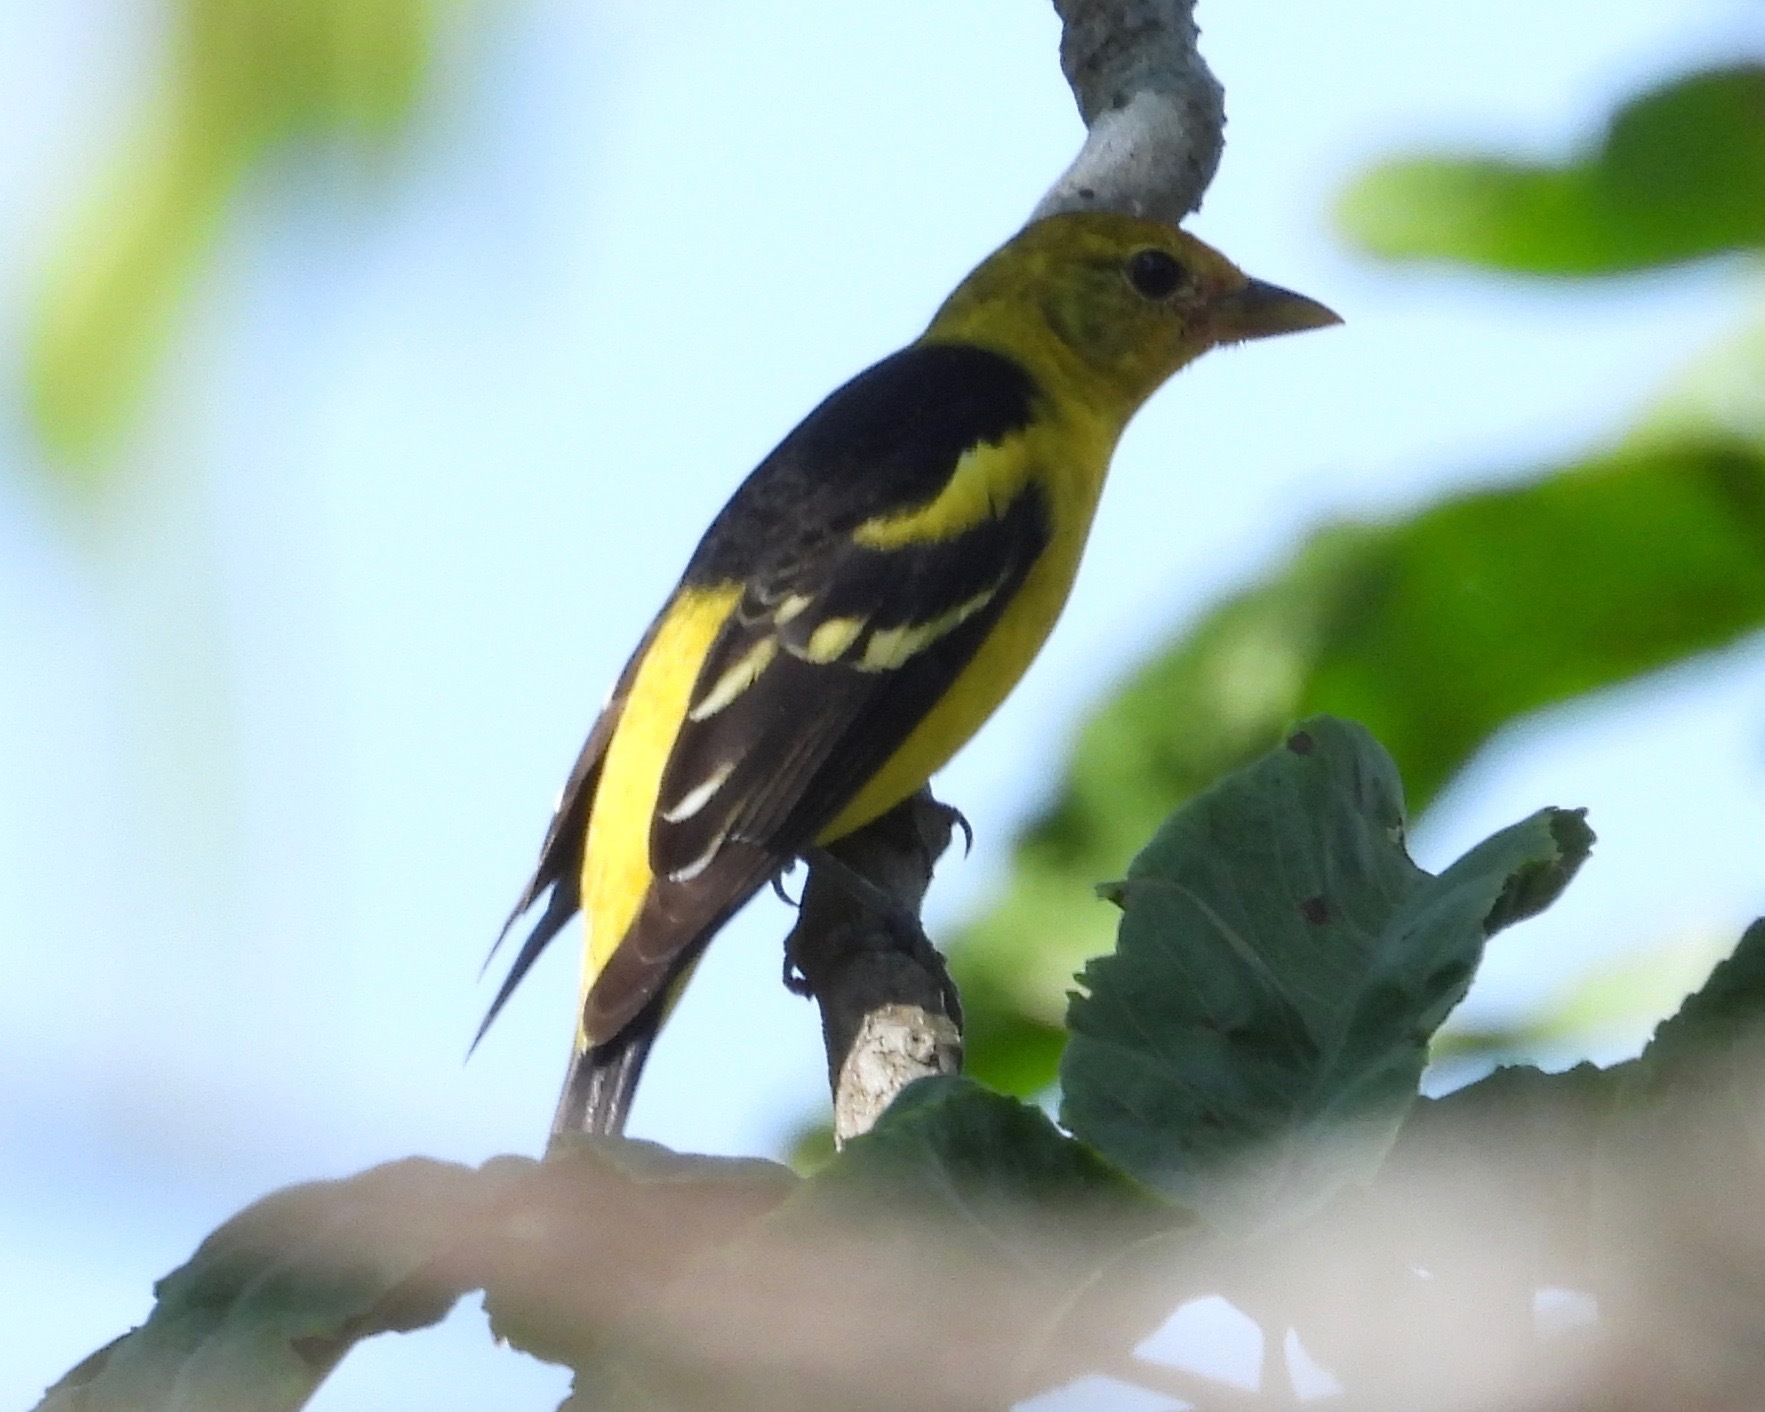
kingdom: Animalia
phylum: Chordata
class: Aves
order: Passeriformes
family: Cardinalidae
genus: Piranga
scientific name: Piranga ludoviciana
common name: Western tanager
